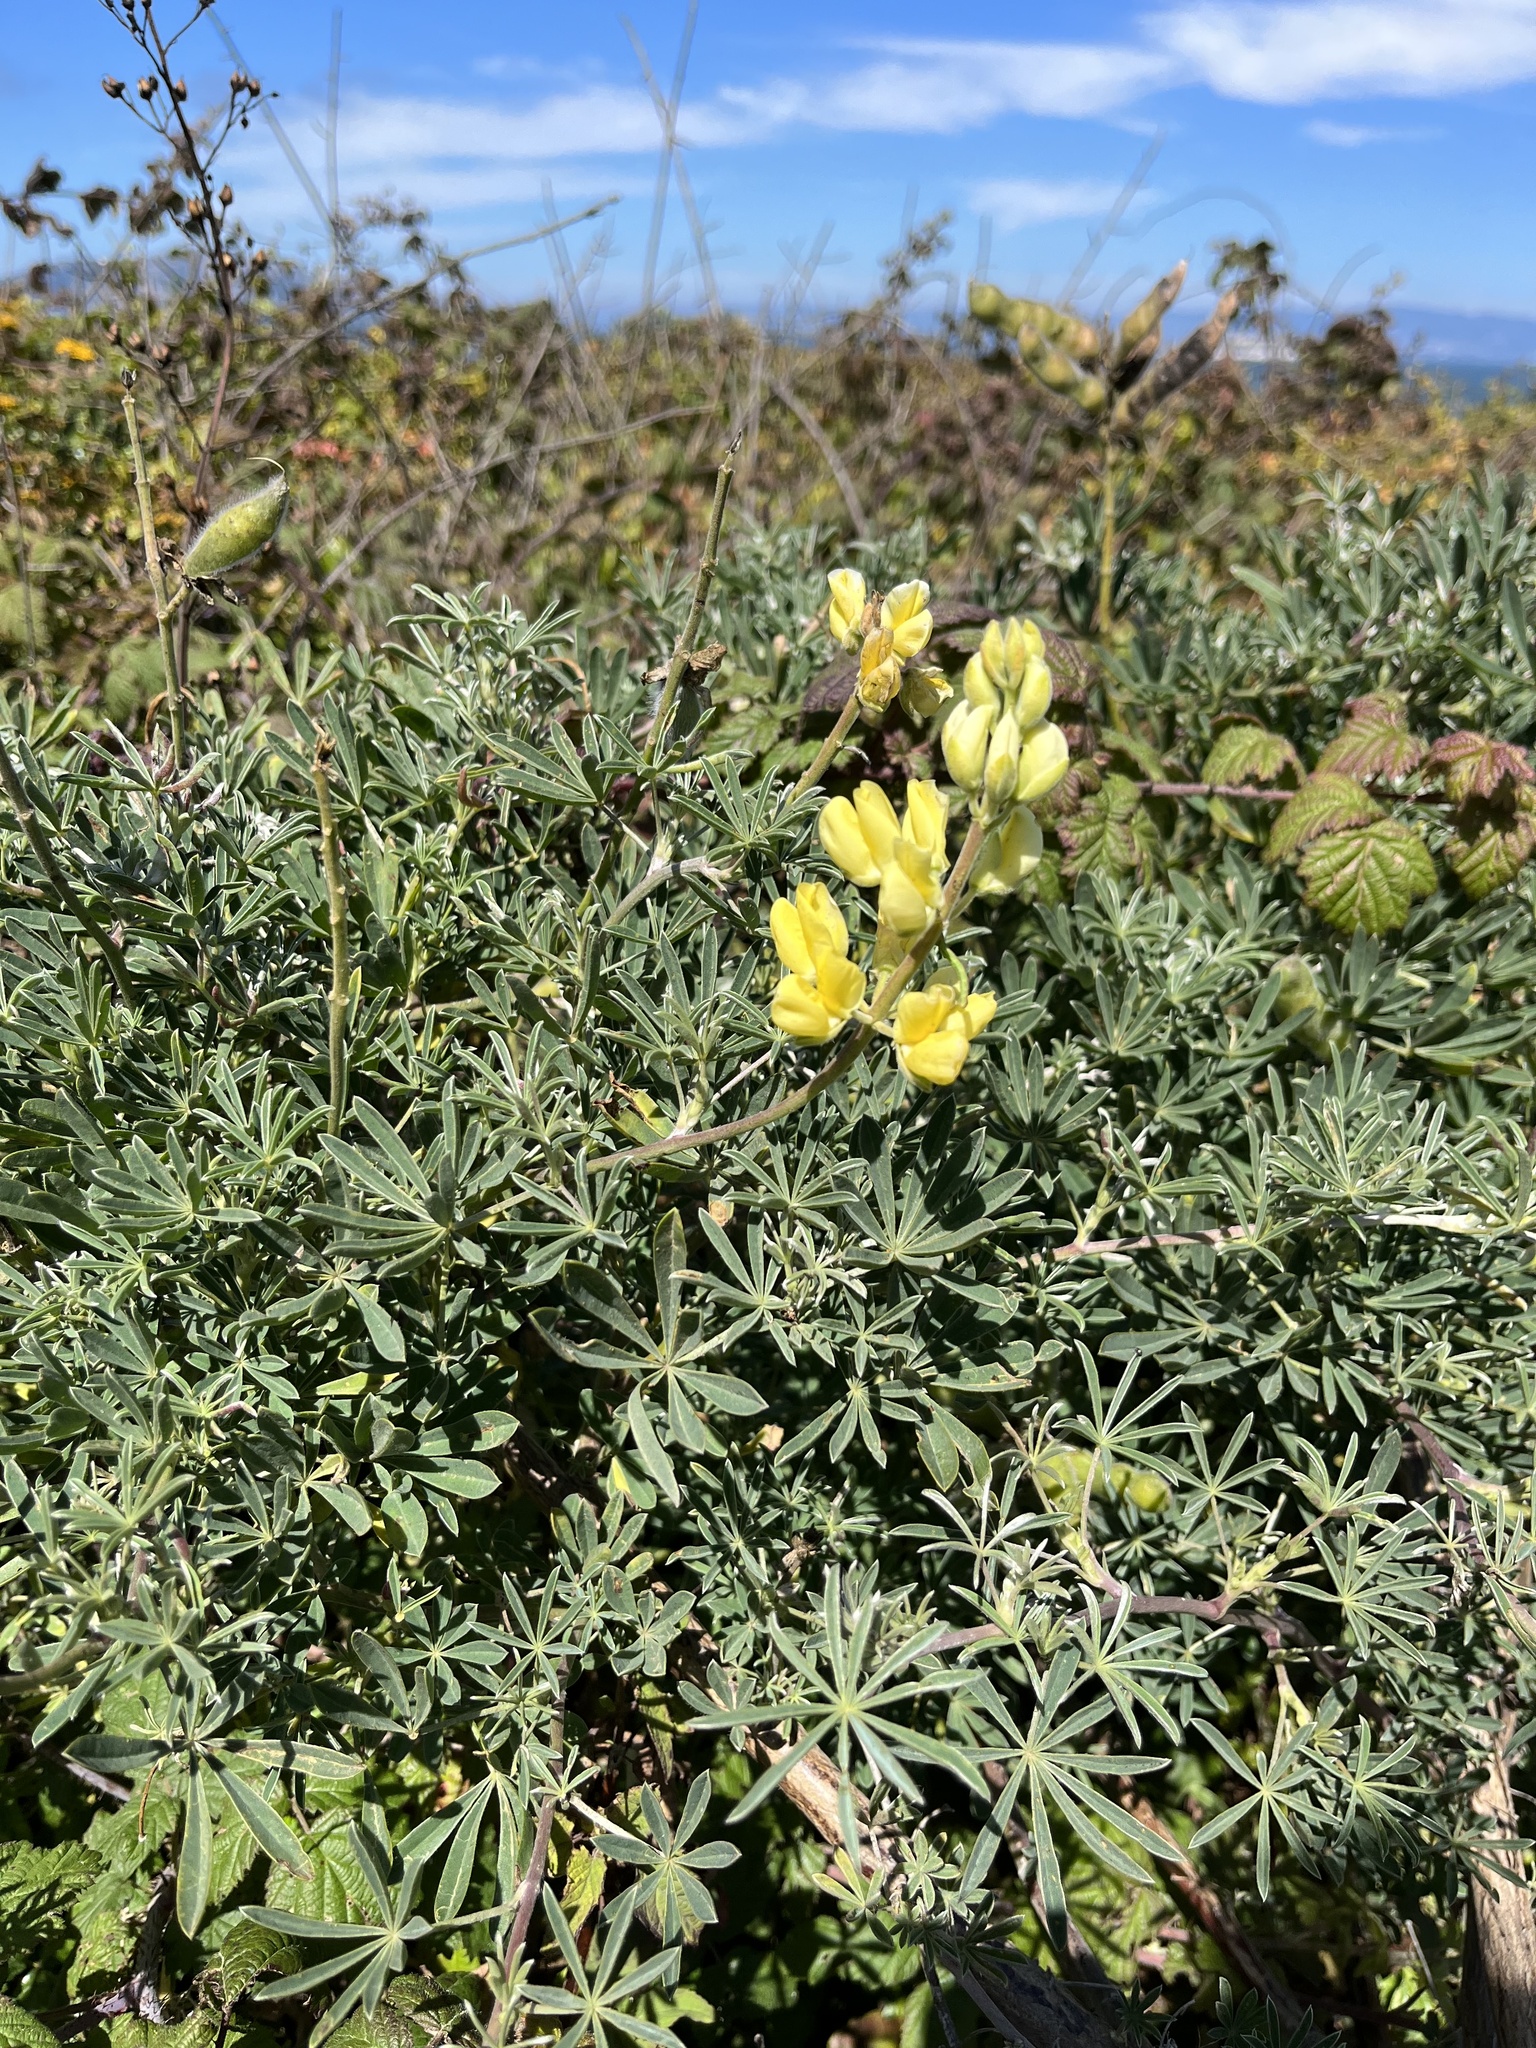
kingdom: Plantae
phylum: Tracheophyta
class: Magnoliopsida
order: Fabales
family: Fabaceae
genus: Lupinus
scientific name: Lupinus arboreus
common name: Yellow bush lupine
